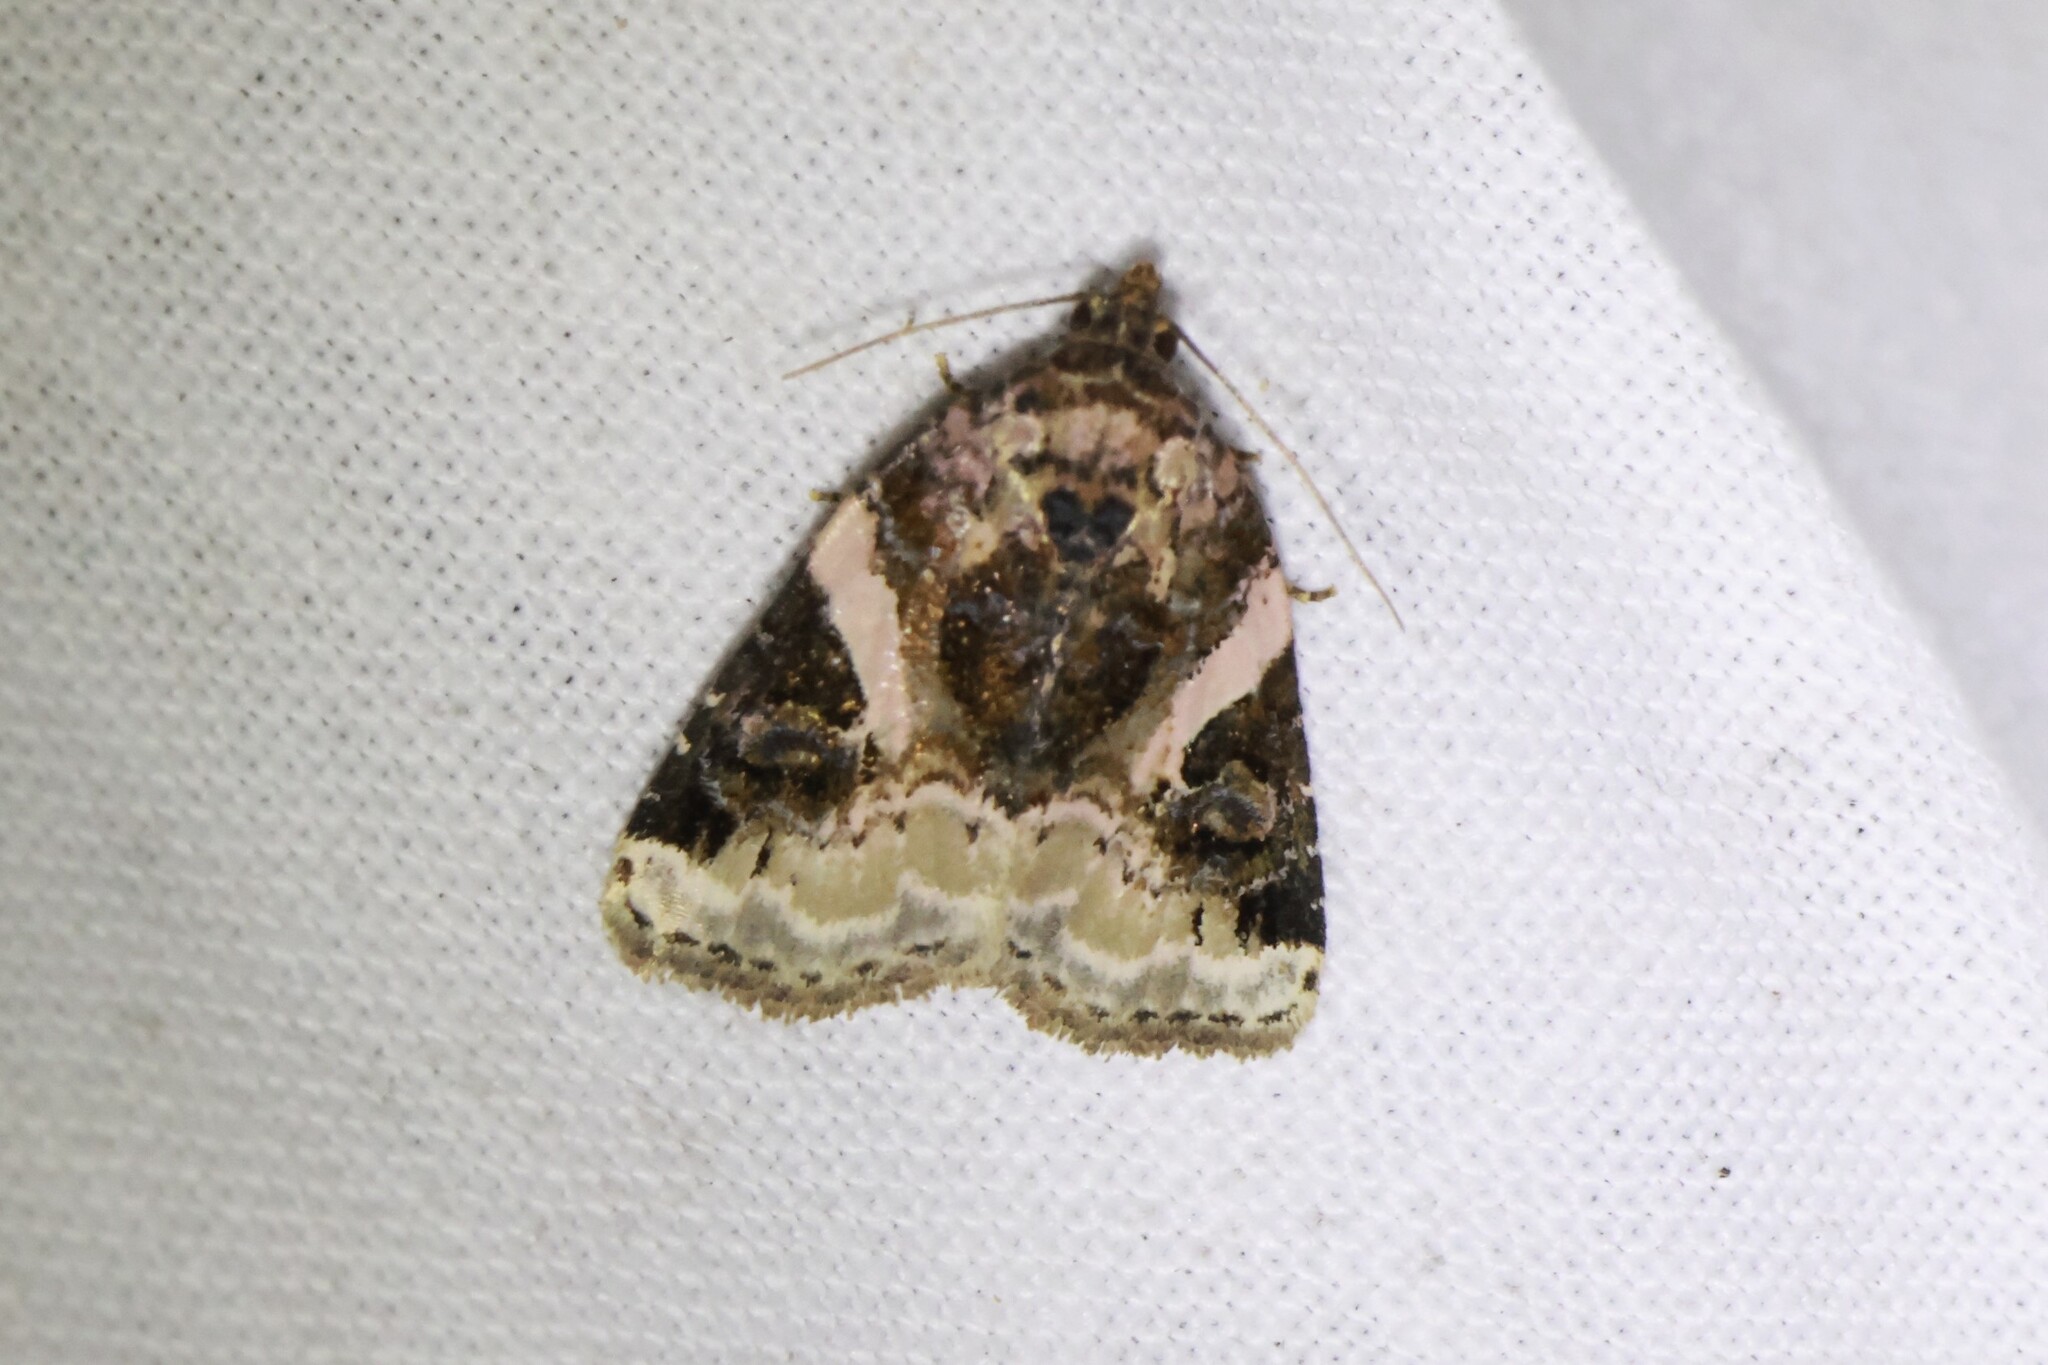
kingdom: Animalia
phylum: Arthropoda
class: Insecta
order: Lepidoptera
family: Noctuidae
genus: Pseudeustrotia
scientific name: Pseudeustrotia carneola
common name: Pink-barred lithacodia moth
